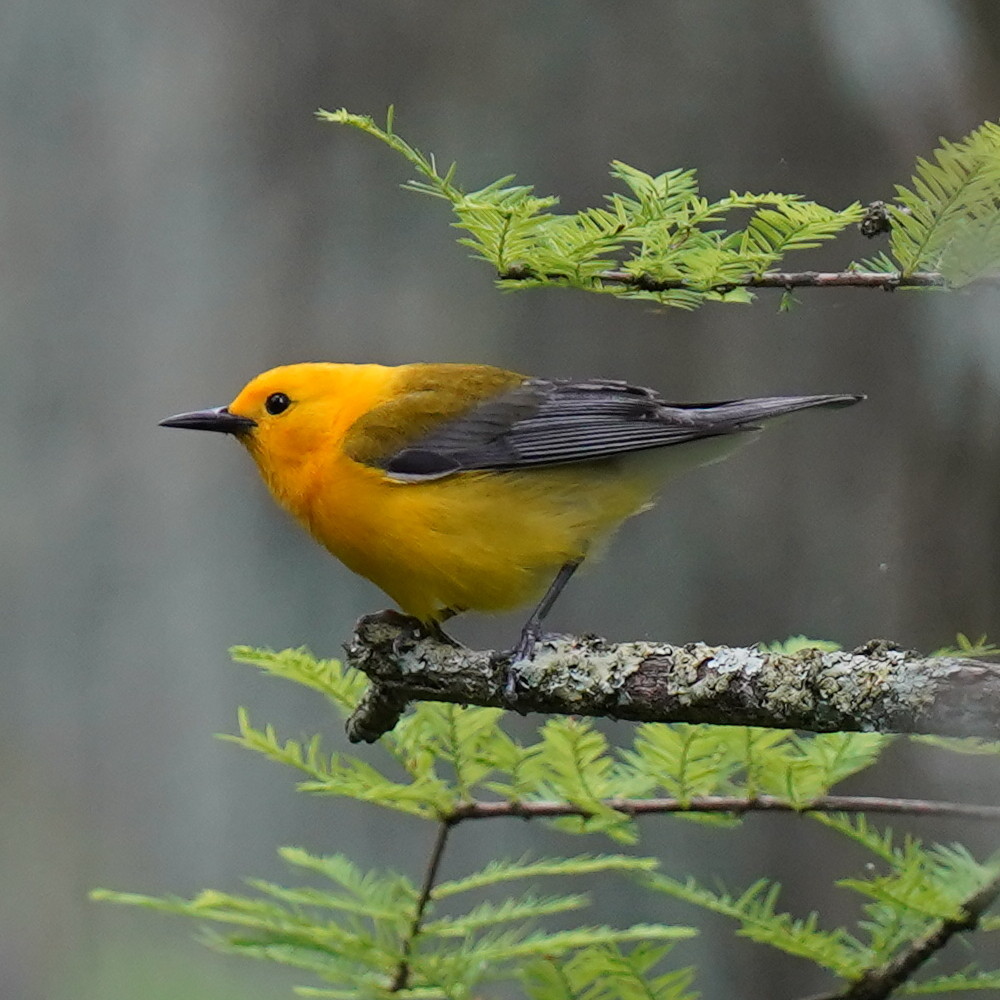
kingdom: Animalia
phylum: Chordata
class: Aves
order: Passeriformes
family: Parulidae
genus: Protonotaria
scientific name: Protonotaria citrea
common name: Prothonotary warbler
